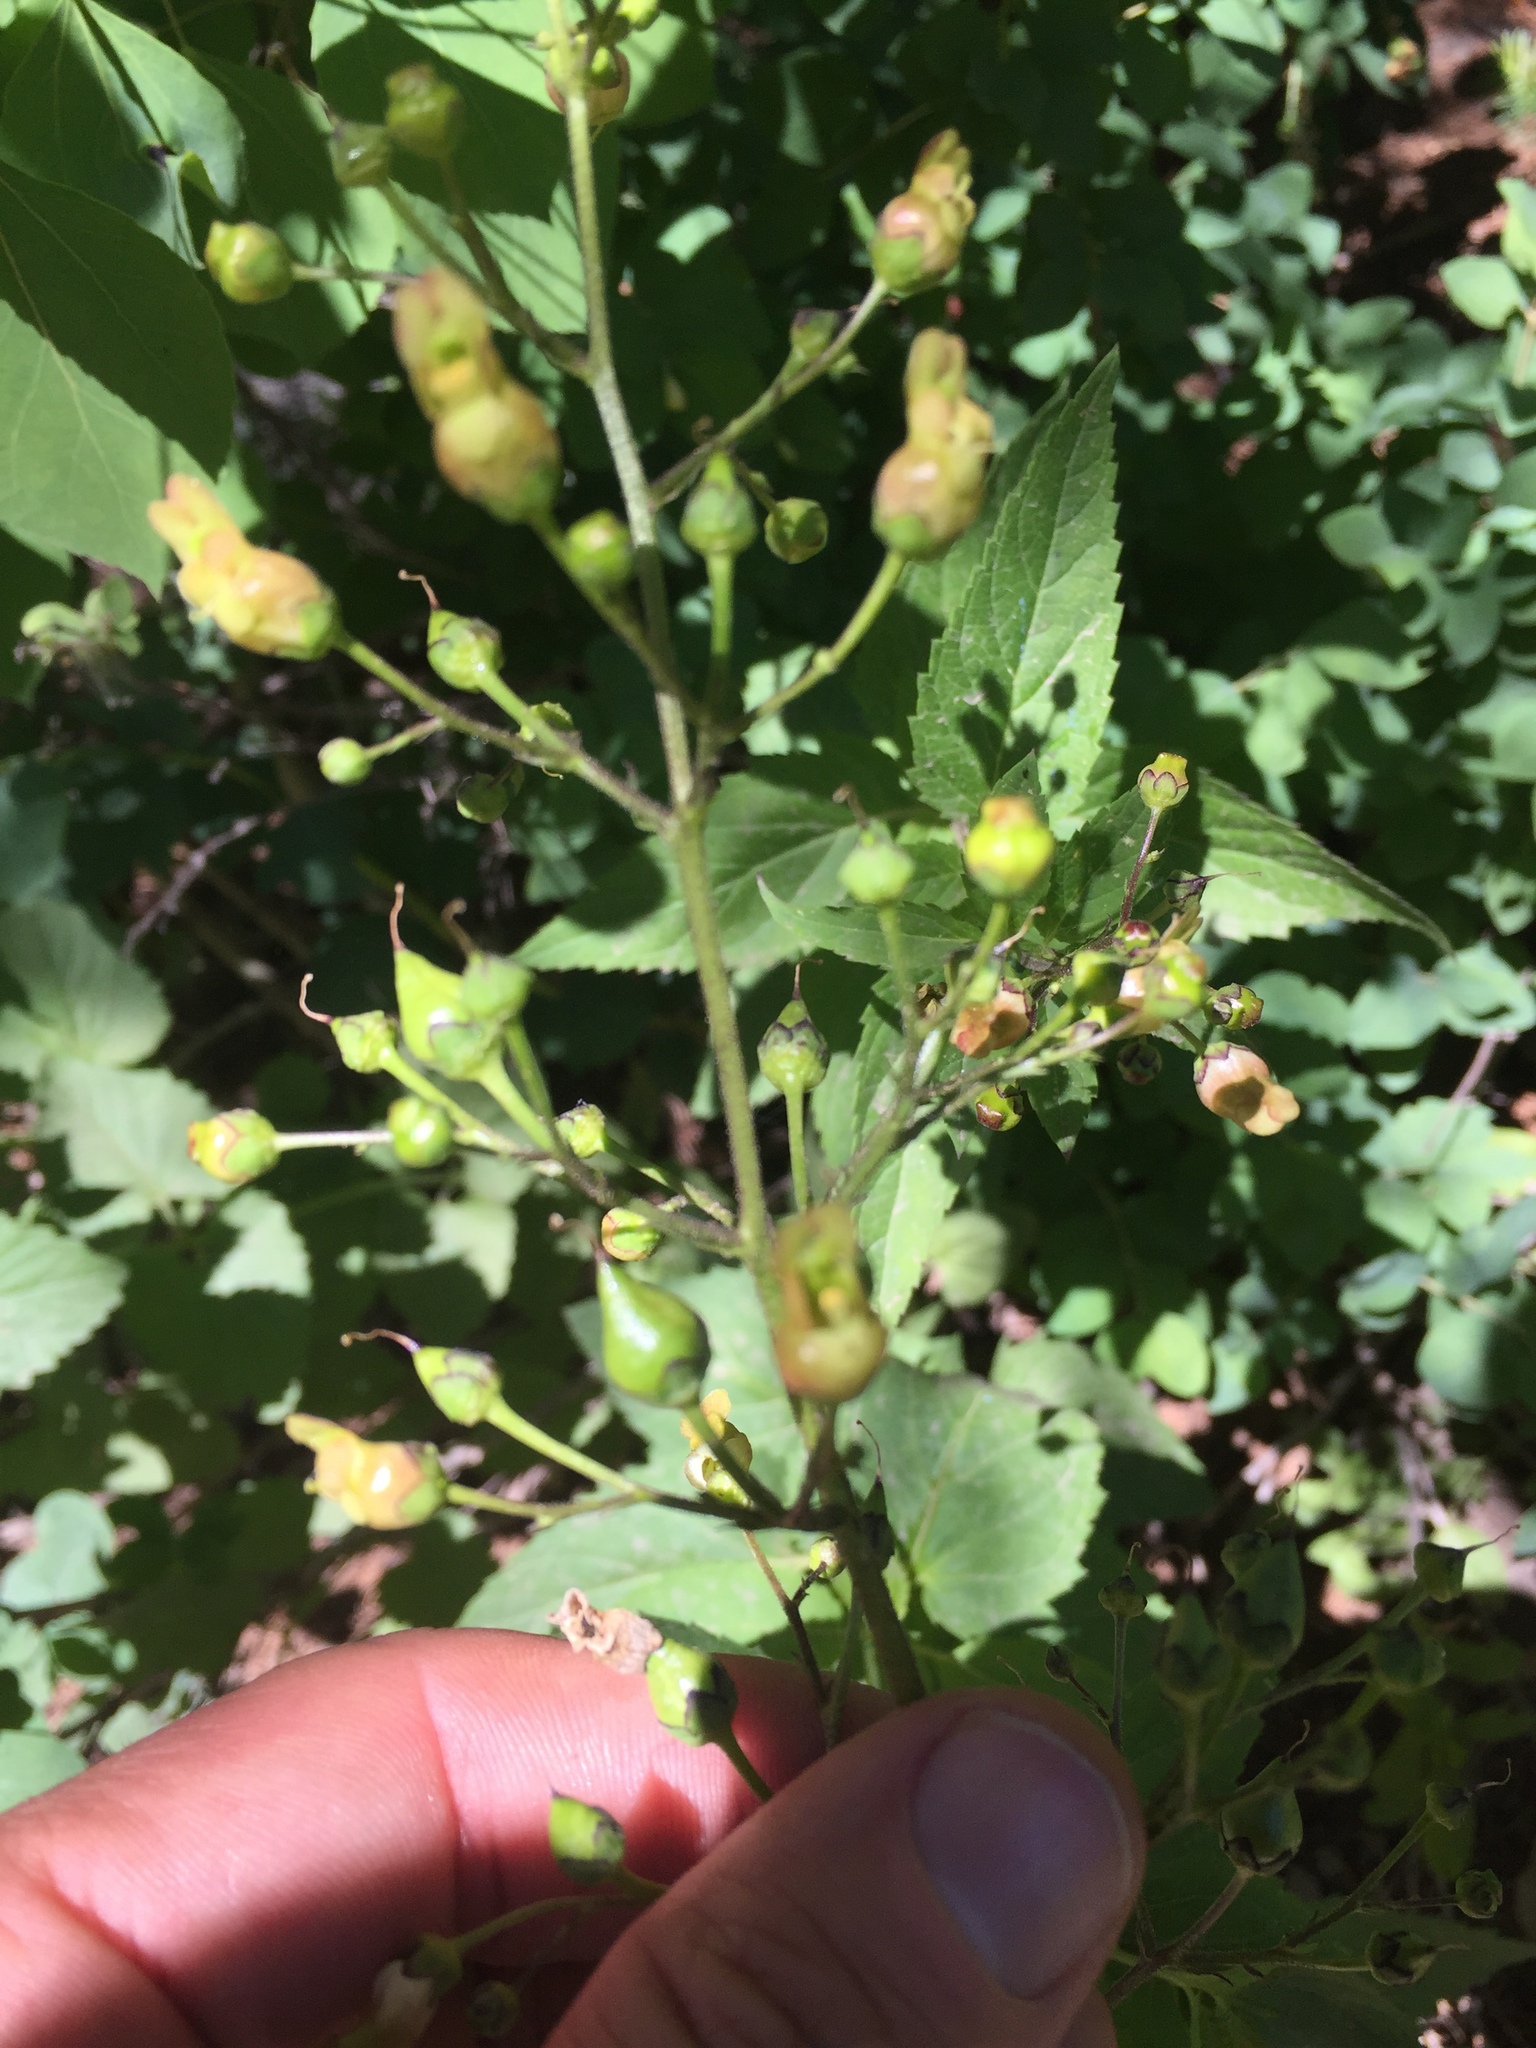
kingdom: Plantae
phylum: Tracheophyta
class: Magnoliopsida
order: Lamiales
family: Scrophulariaceae
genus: Scrophularia
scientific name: Scrophularia lanceolata
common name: American figwort
